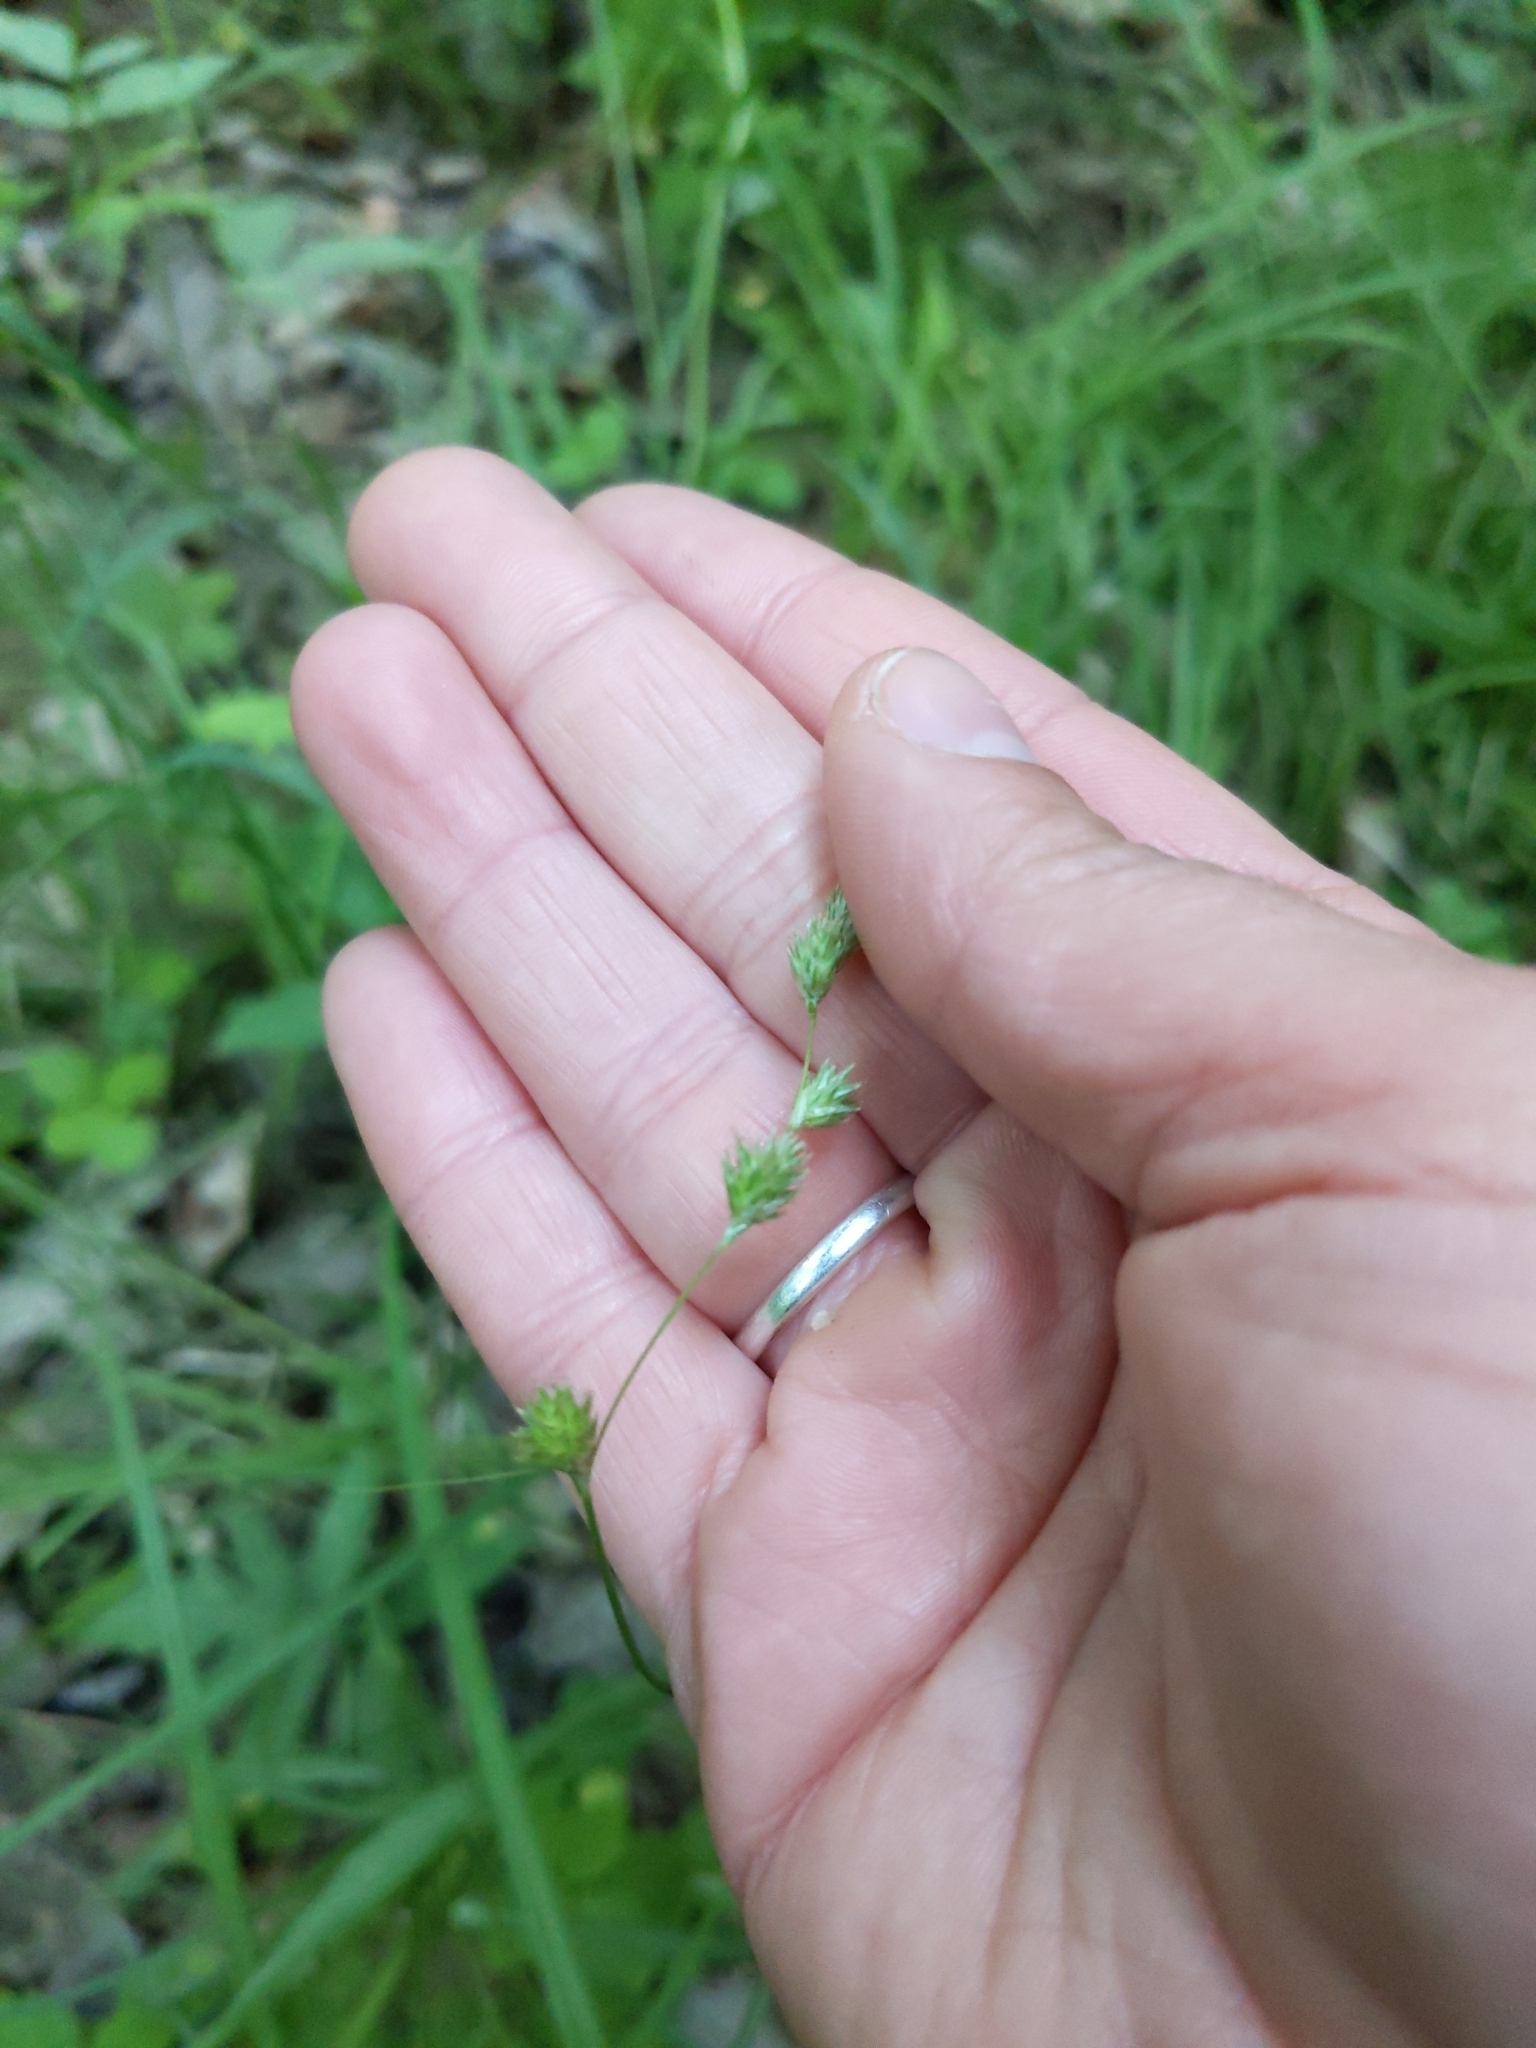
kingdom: Plantae
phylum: Tracheophyta
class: Liliopsida
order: Poales
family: Cyperaceae
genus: Carex
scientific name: Carex tenera
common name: Broad-fruited sedge
